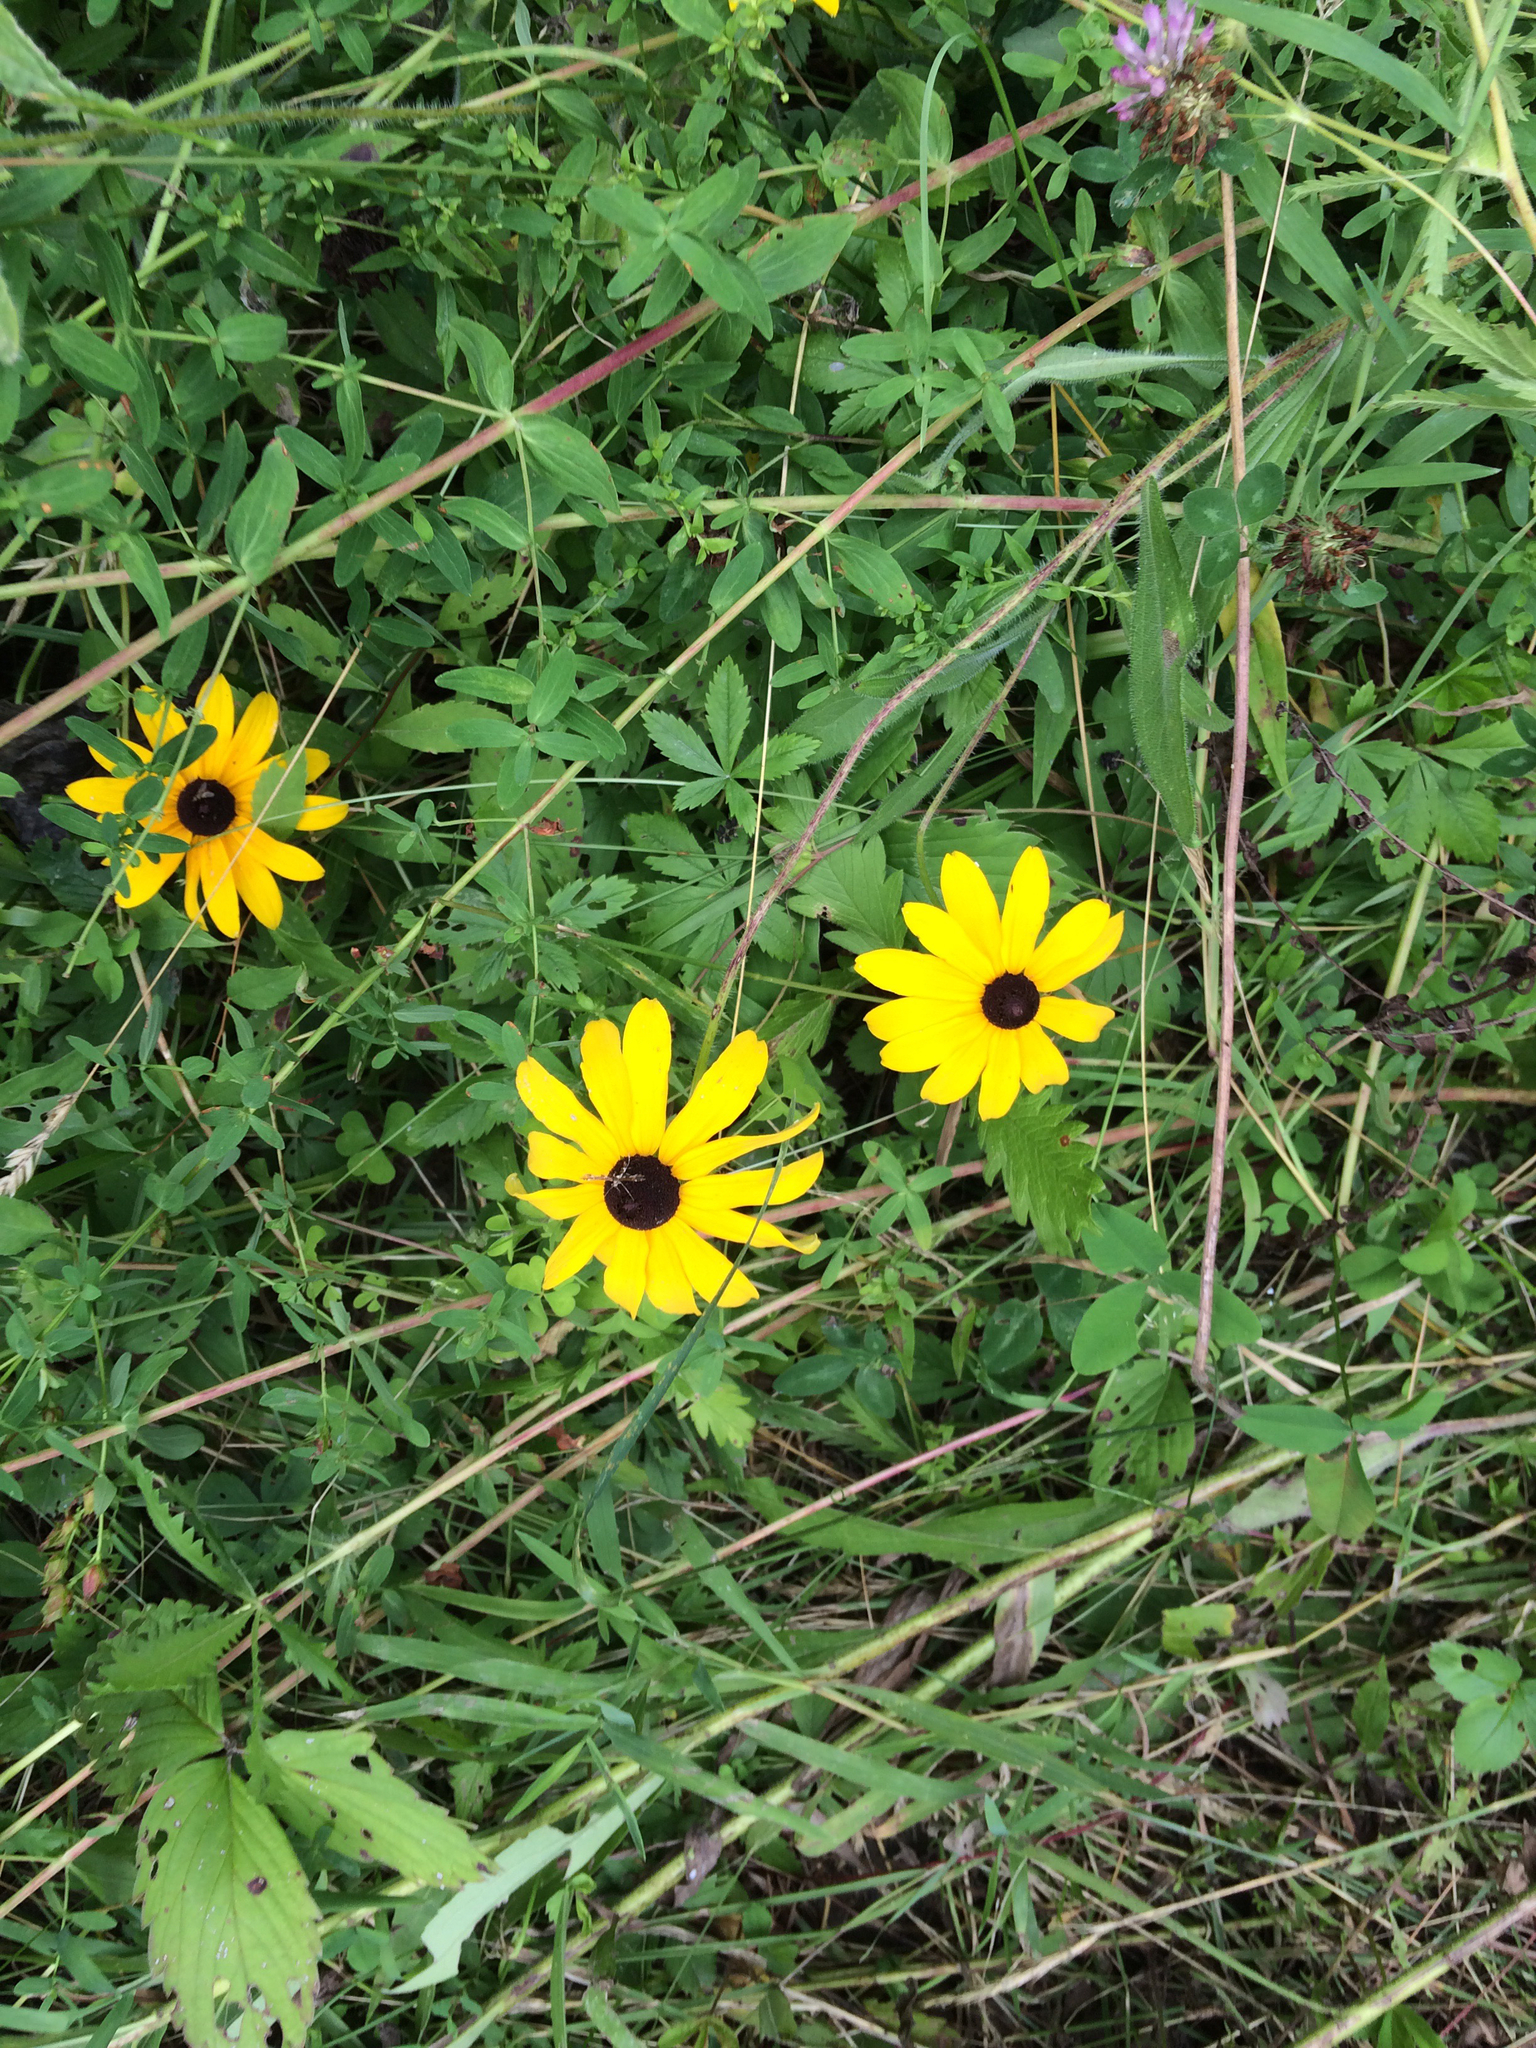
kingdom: Plantae
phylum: Tracheophyta
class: Magnoliopsida
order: Asterales
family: Asteraceae
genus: Rudbeckia
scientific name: Rudbeckia hirta
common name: Black-eyed-susan
